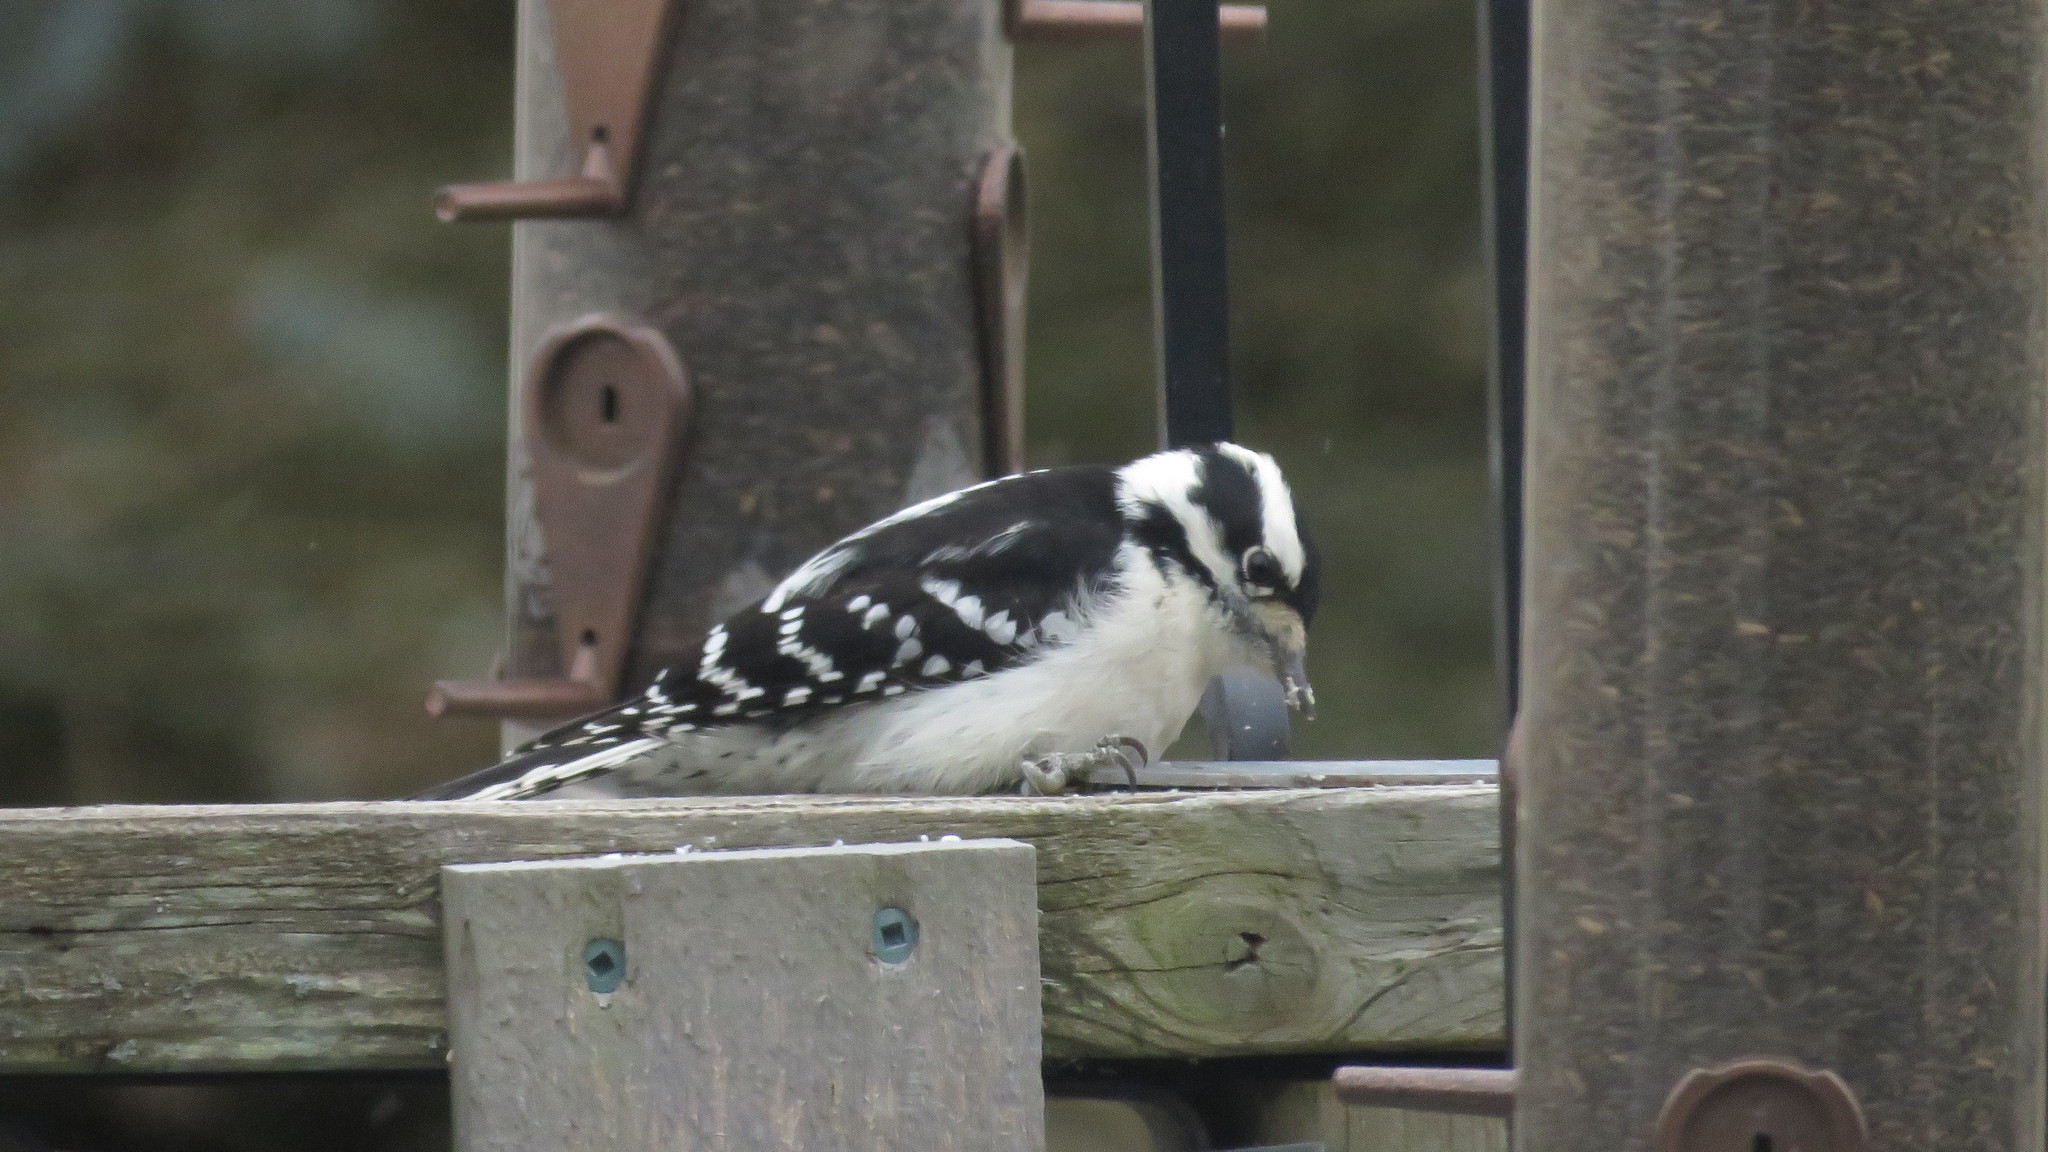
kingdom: Animalia
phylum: Chordata
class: Aves
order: Piciformes
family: Picidae
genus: Dryobates
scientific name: Dryobates pubescens
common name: Downy woodpecker
